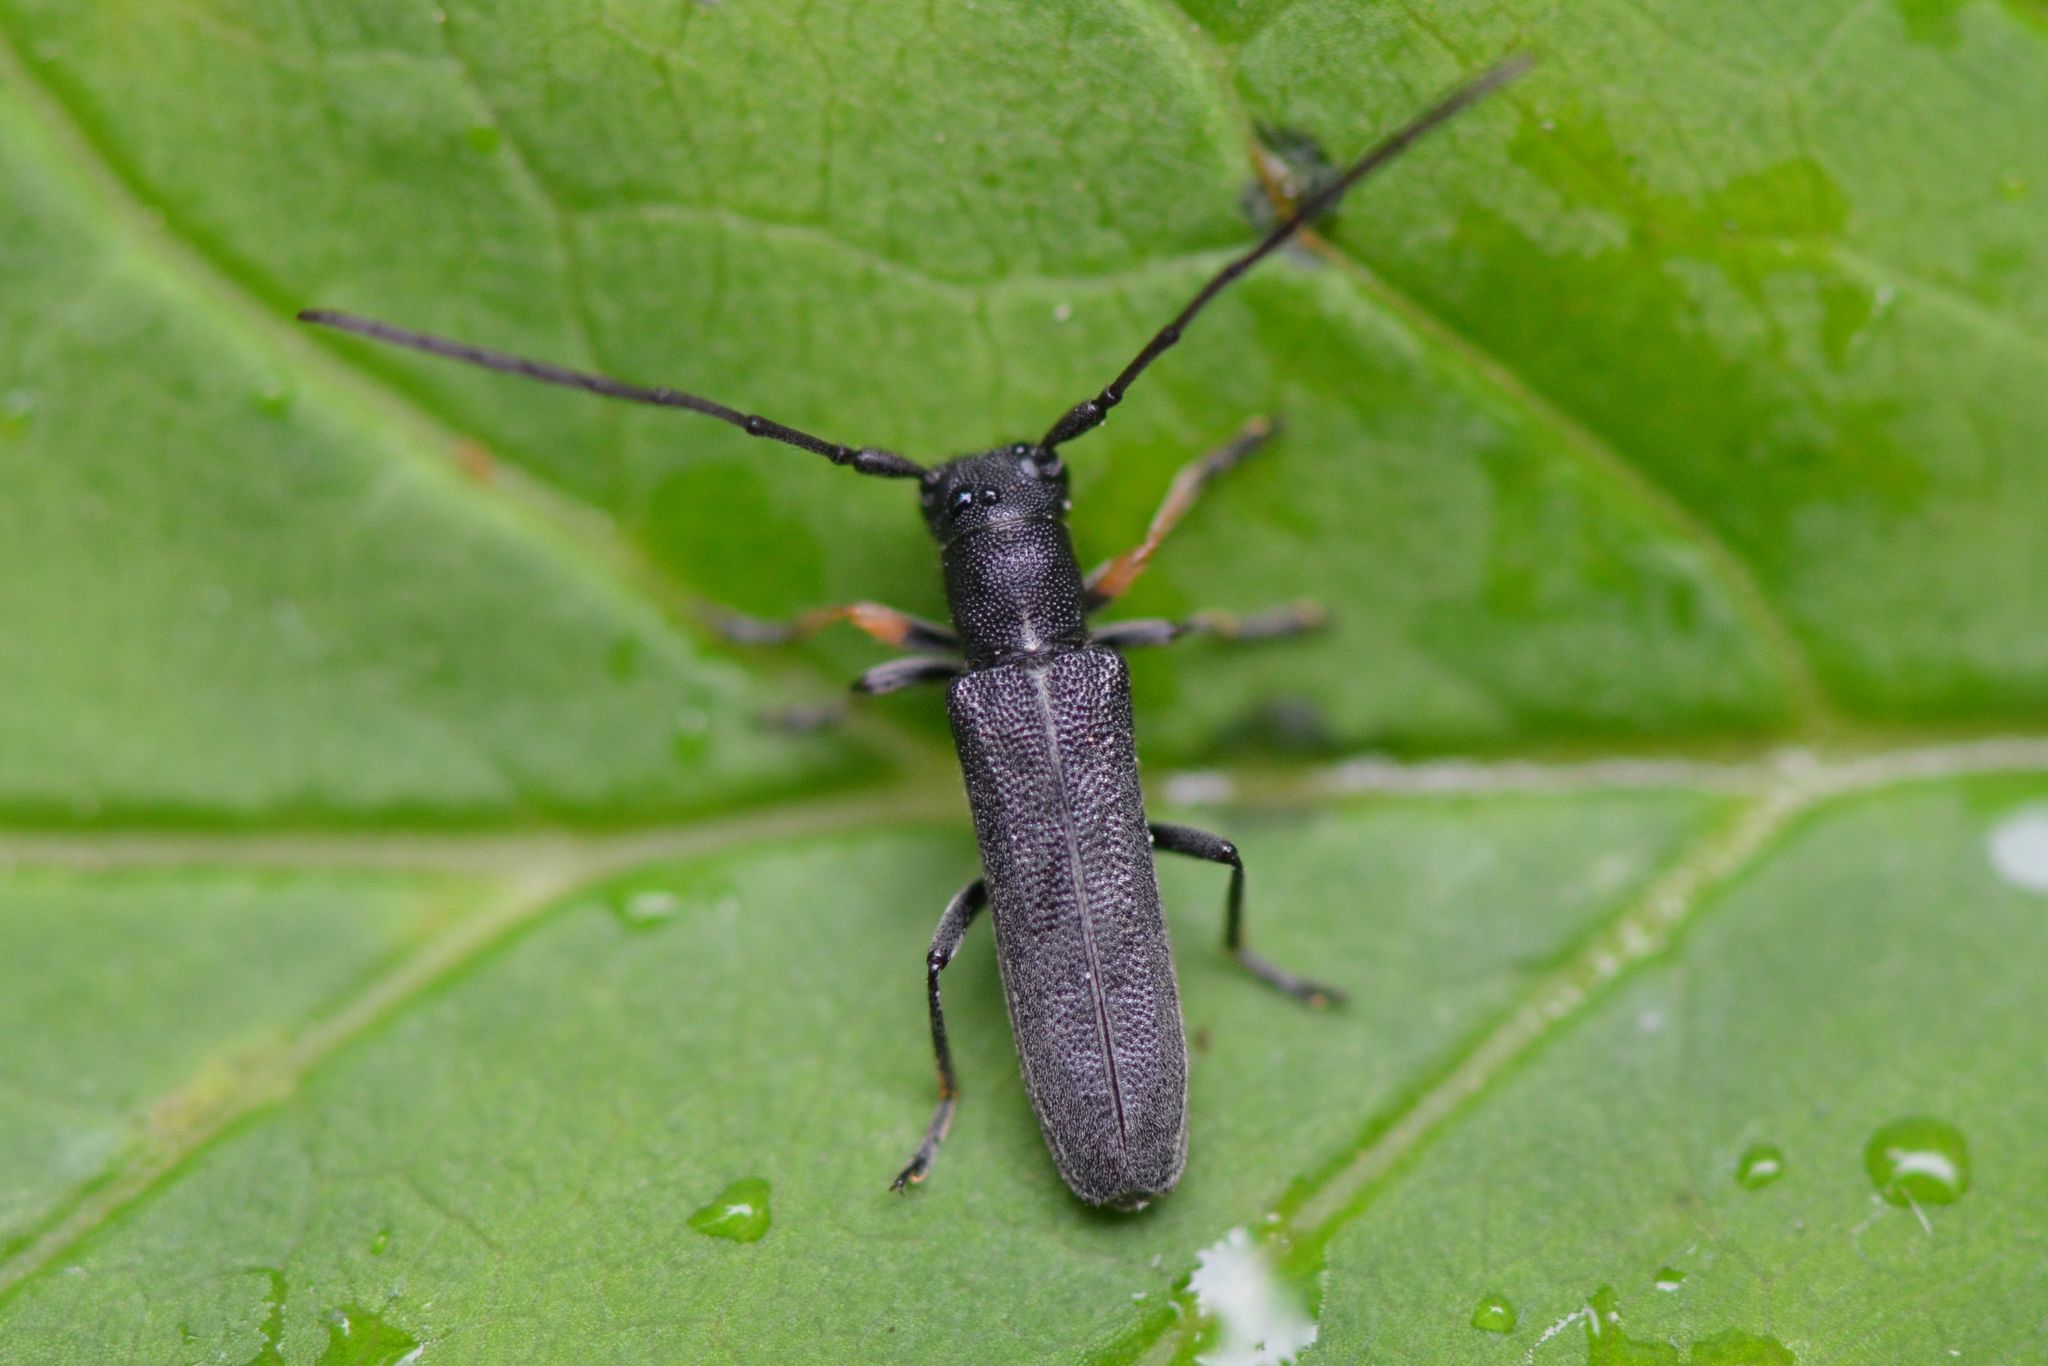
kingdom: Animalia
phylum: Arthropoda
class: Insecta
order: Coleoptera
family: Cerambycidae
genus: Phytoecia
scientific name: Phytoecia cylindrica
